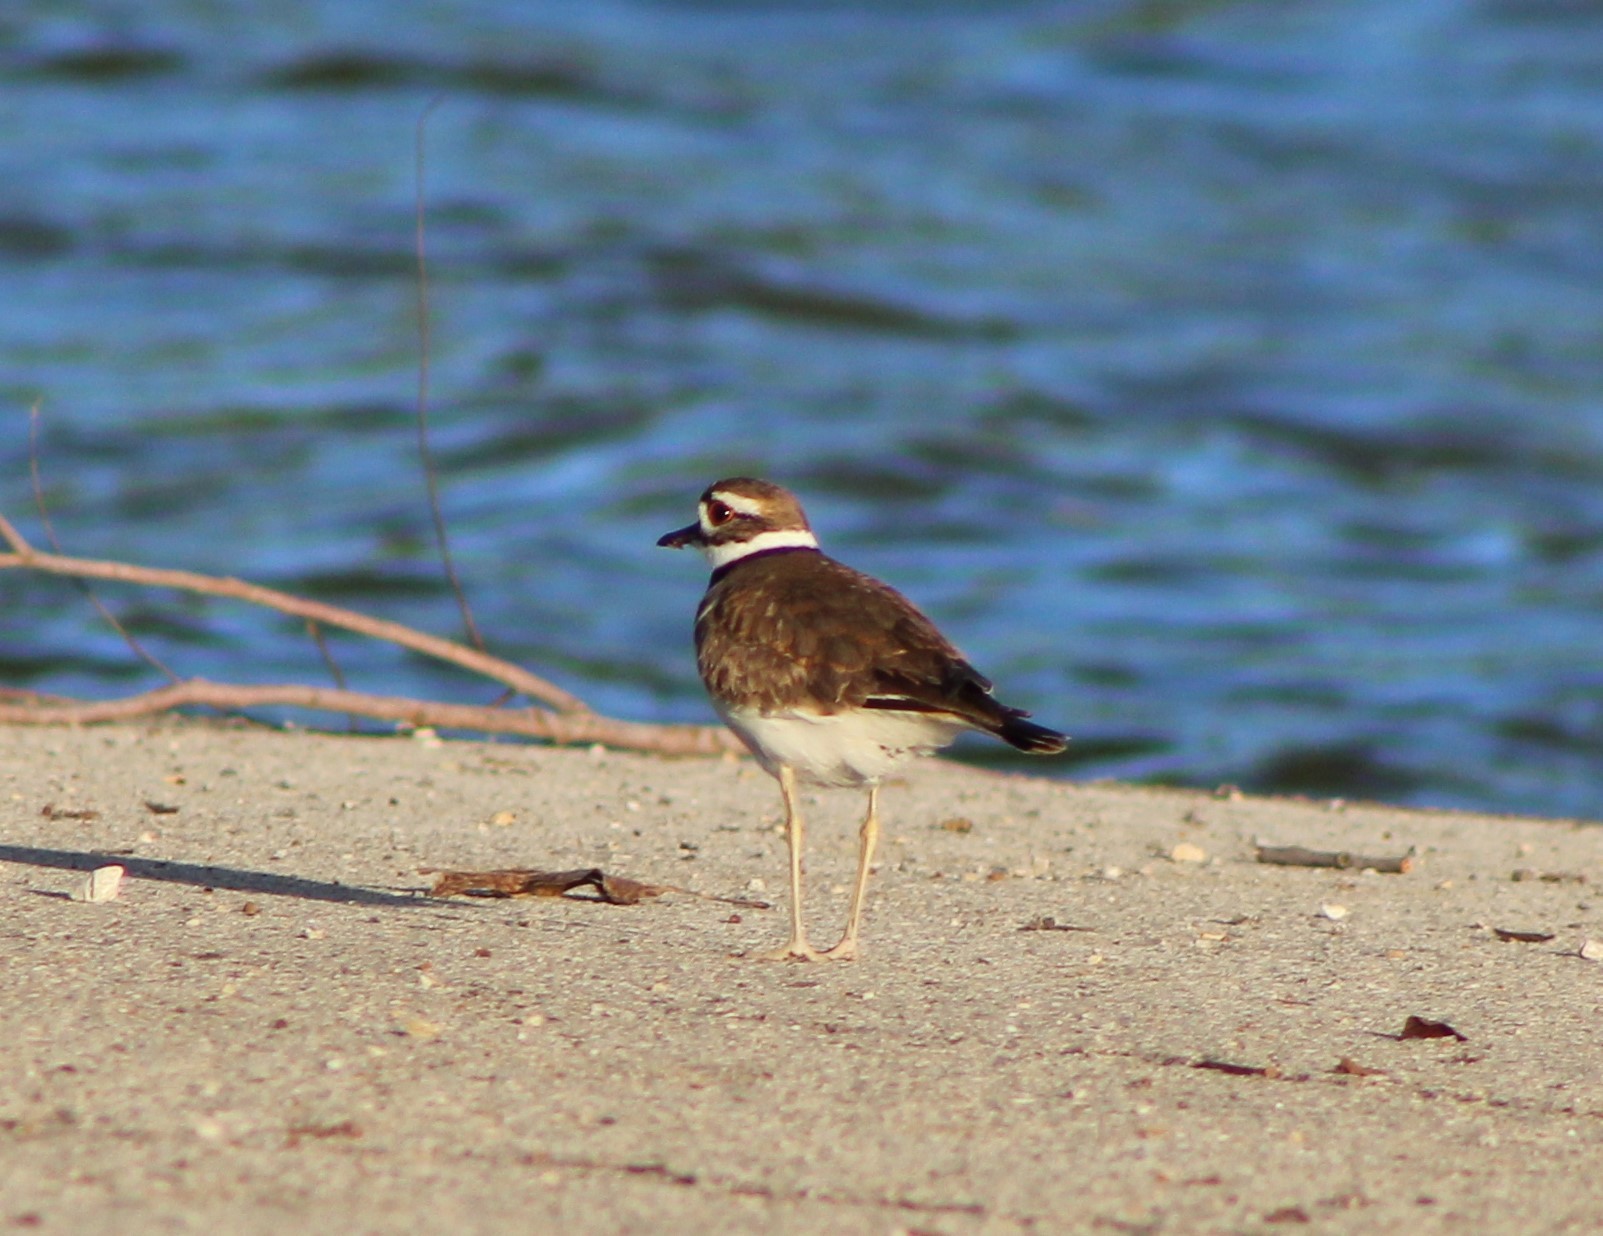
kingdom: Animalia
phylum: Chordata
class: Aves
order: Charadriiformes
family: Charadriidae
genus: Charadrius
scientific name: Charadrius vociferus
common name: Killdeer
